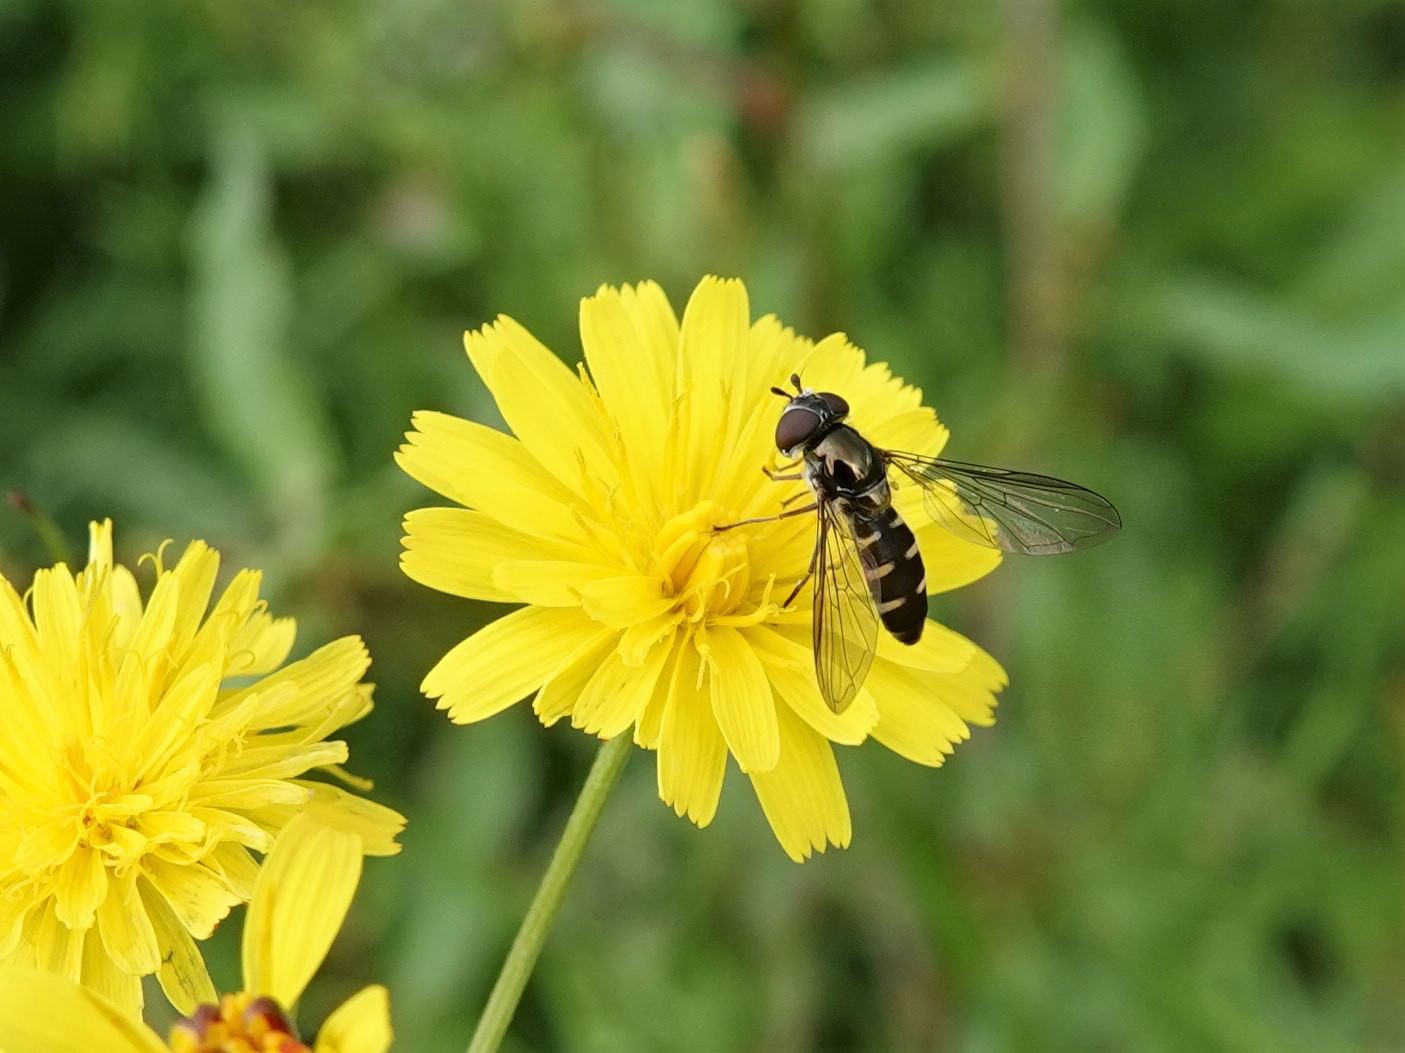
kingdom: Animalia
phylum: Arthropoda
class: Insecta
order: Diptera
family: Syrphidae
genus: Melangyna
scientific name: Melangyna novaezelandiae
